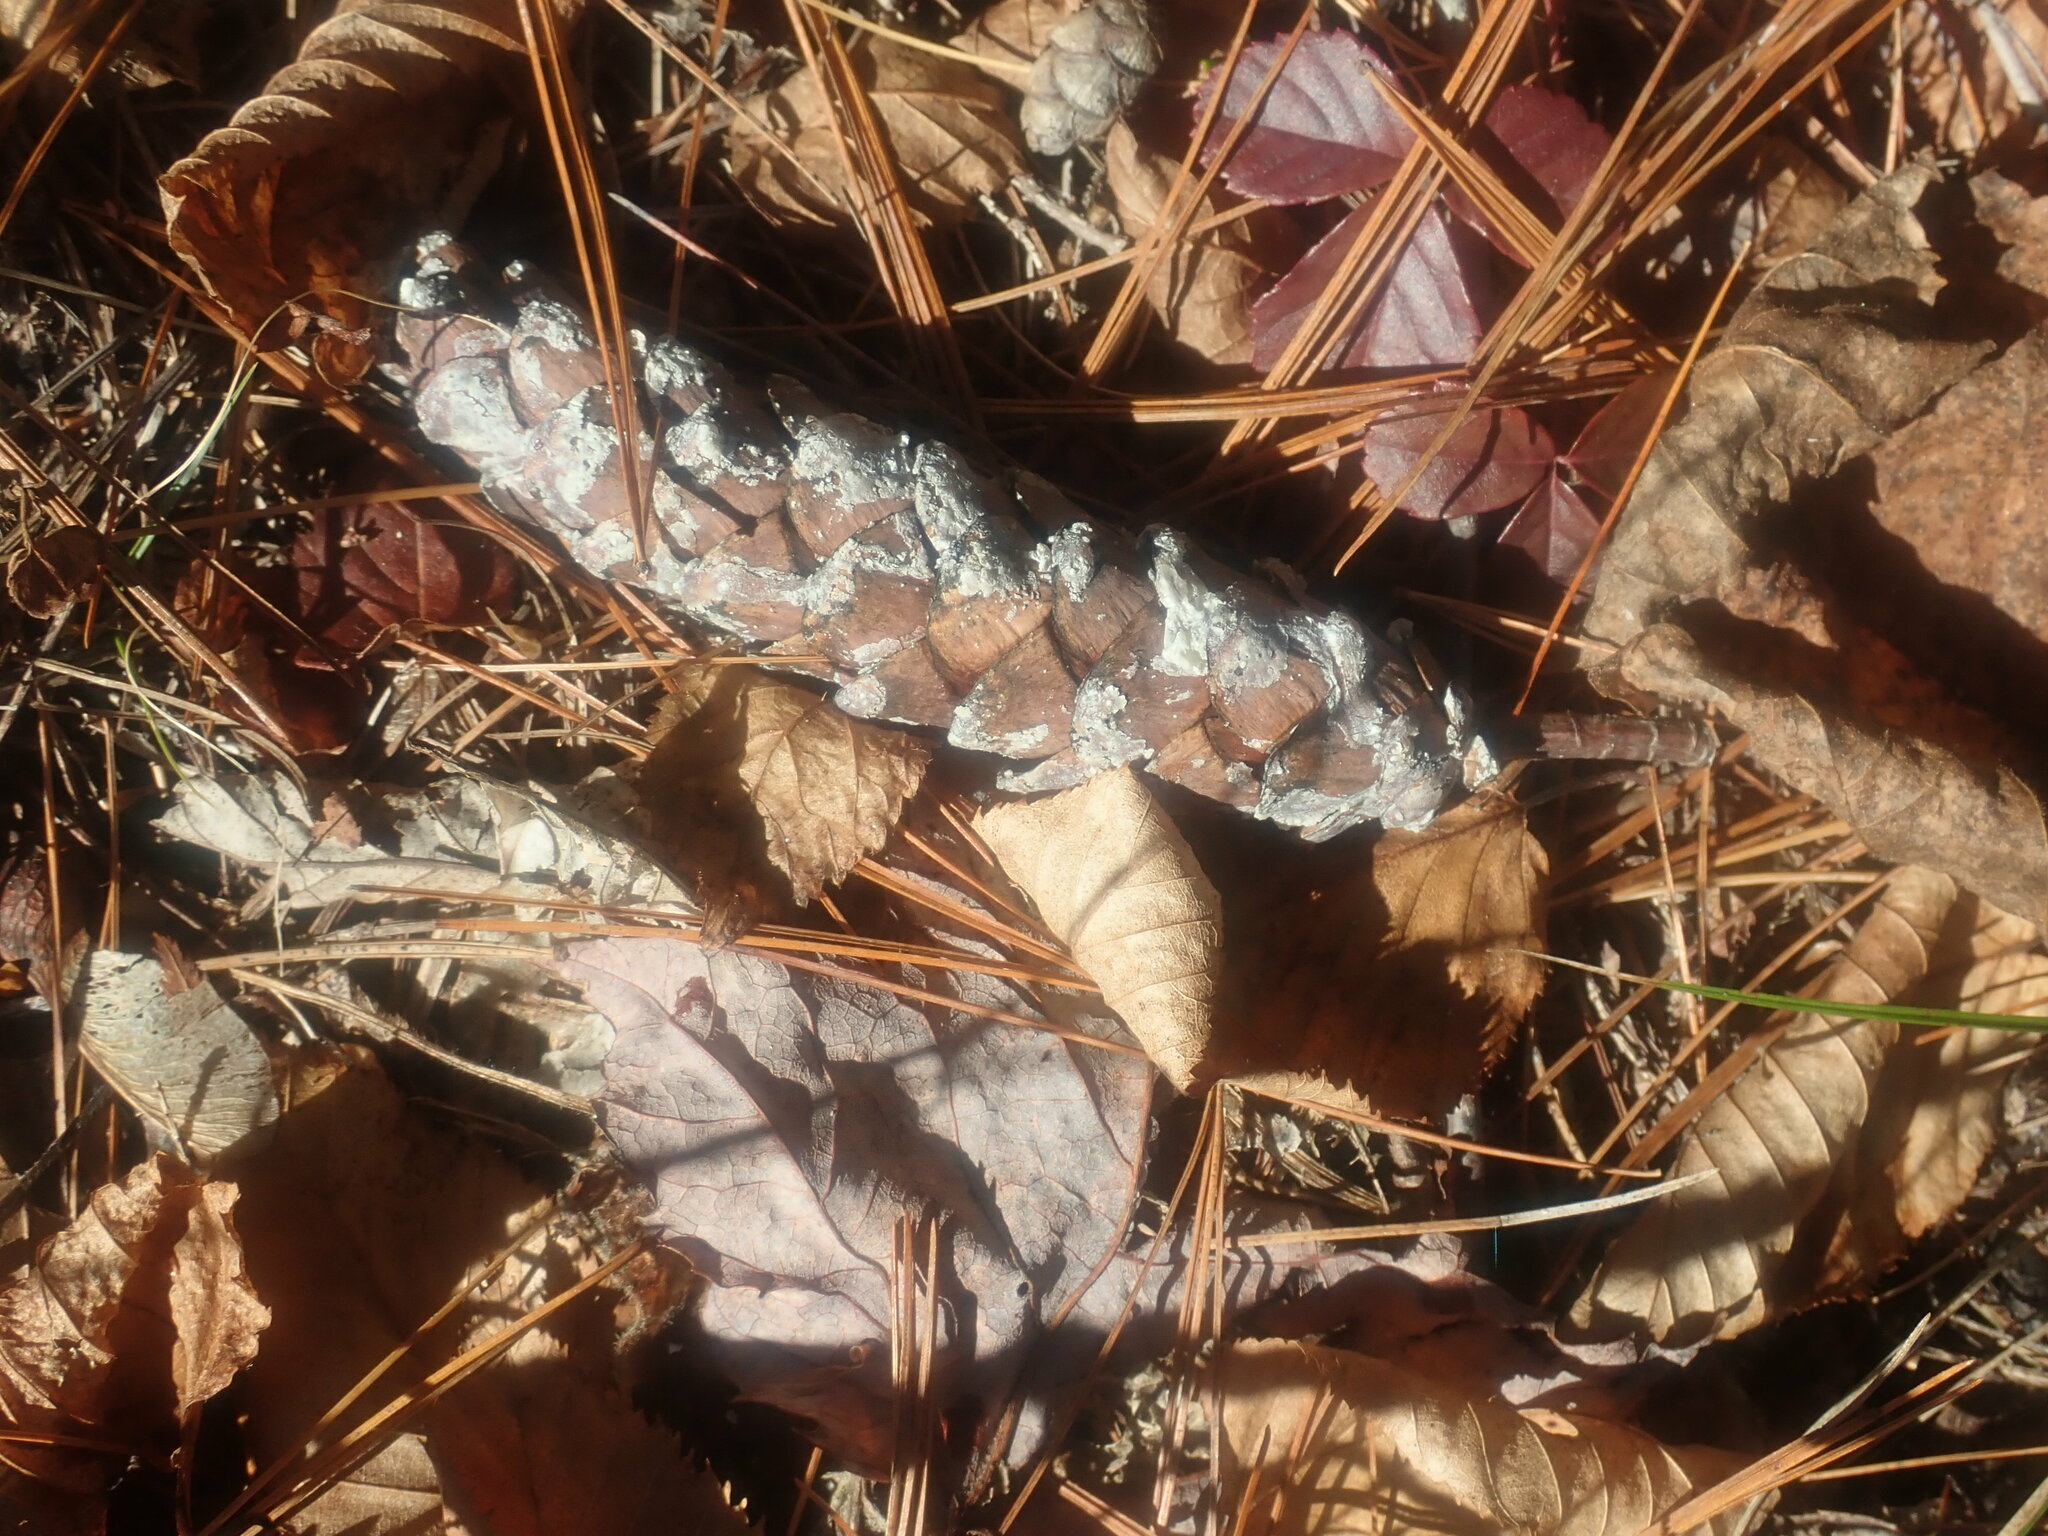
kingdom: Plantae
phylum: Tracheophyta
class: Pinopsida
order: Pinales
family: Pinaceae
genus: Pinus
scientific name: Pinus strobus
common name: Weymouth pine
